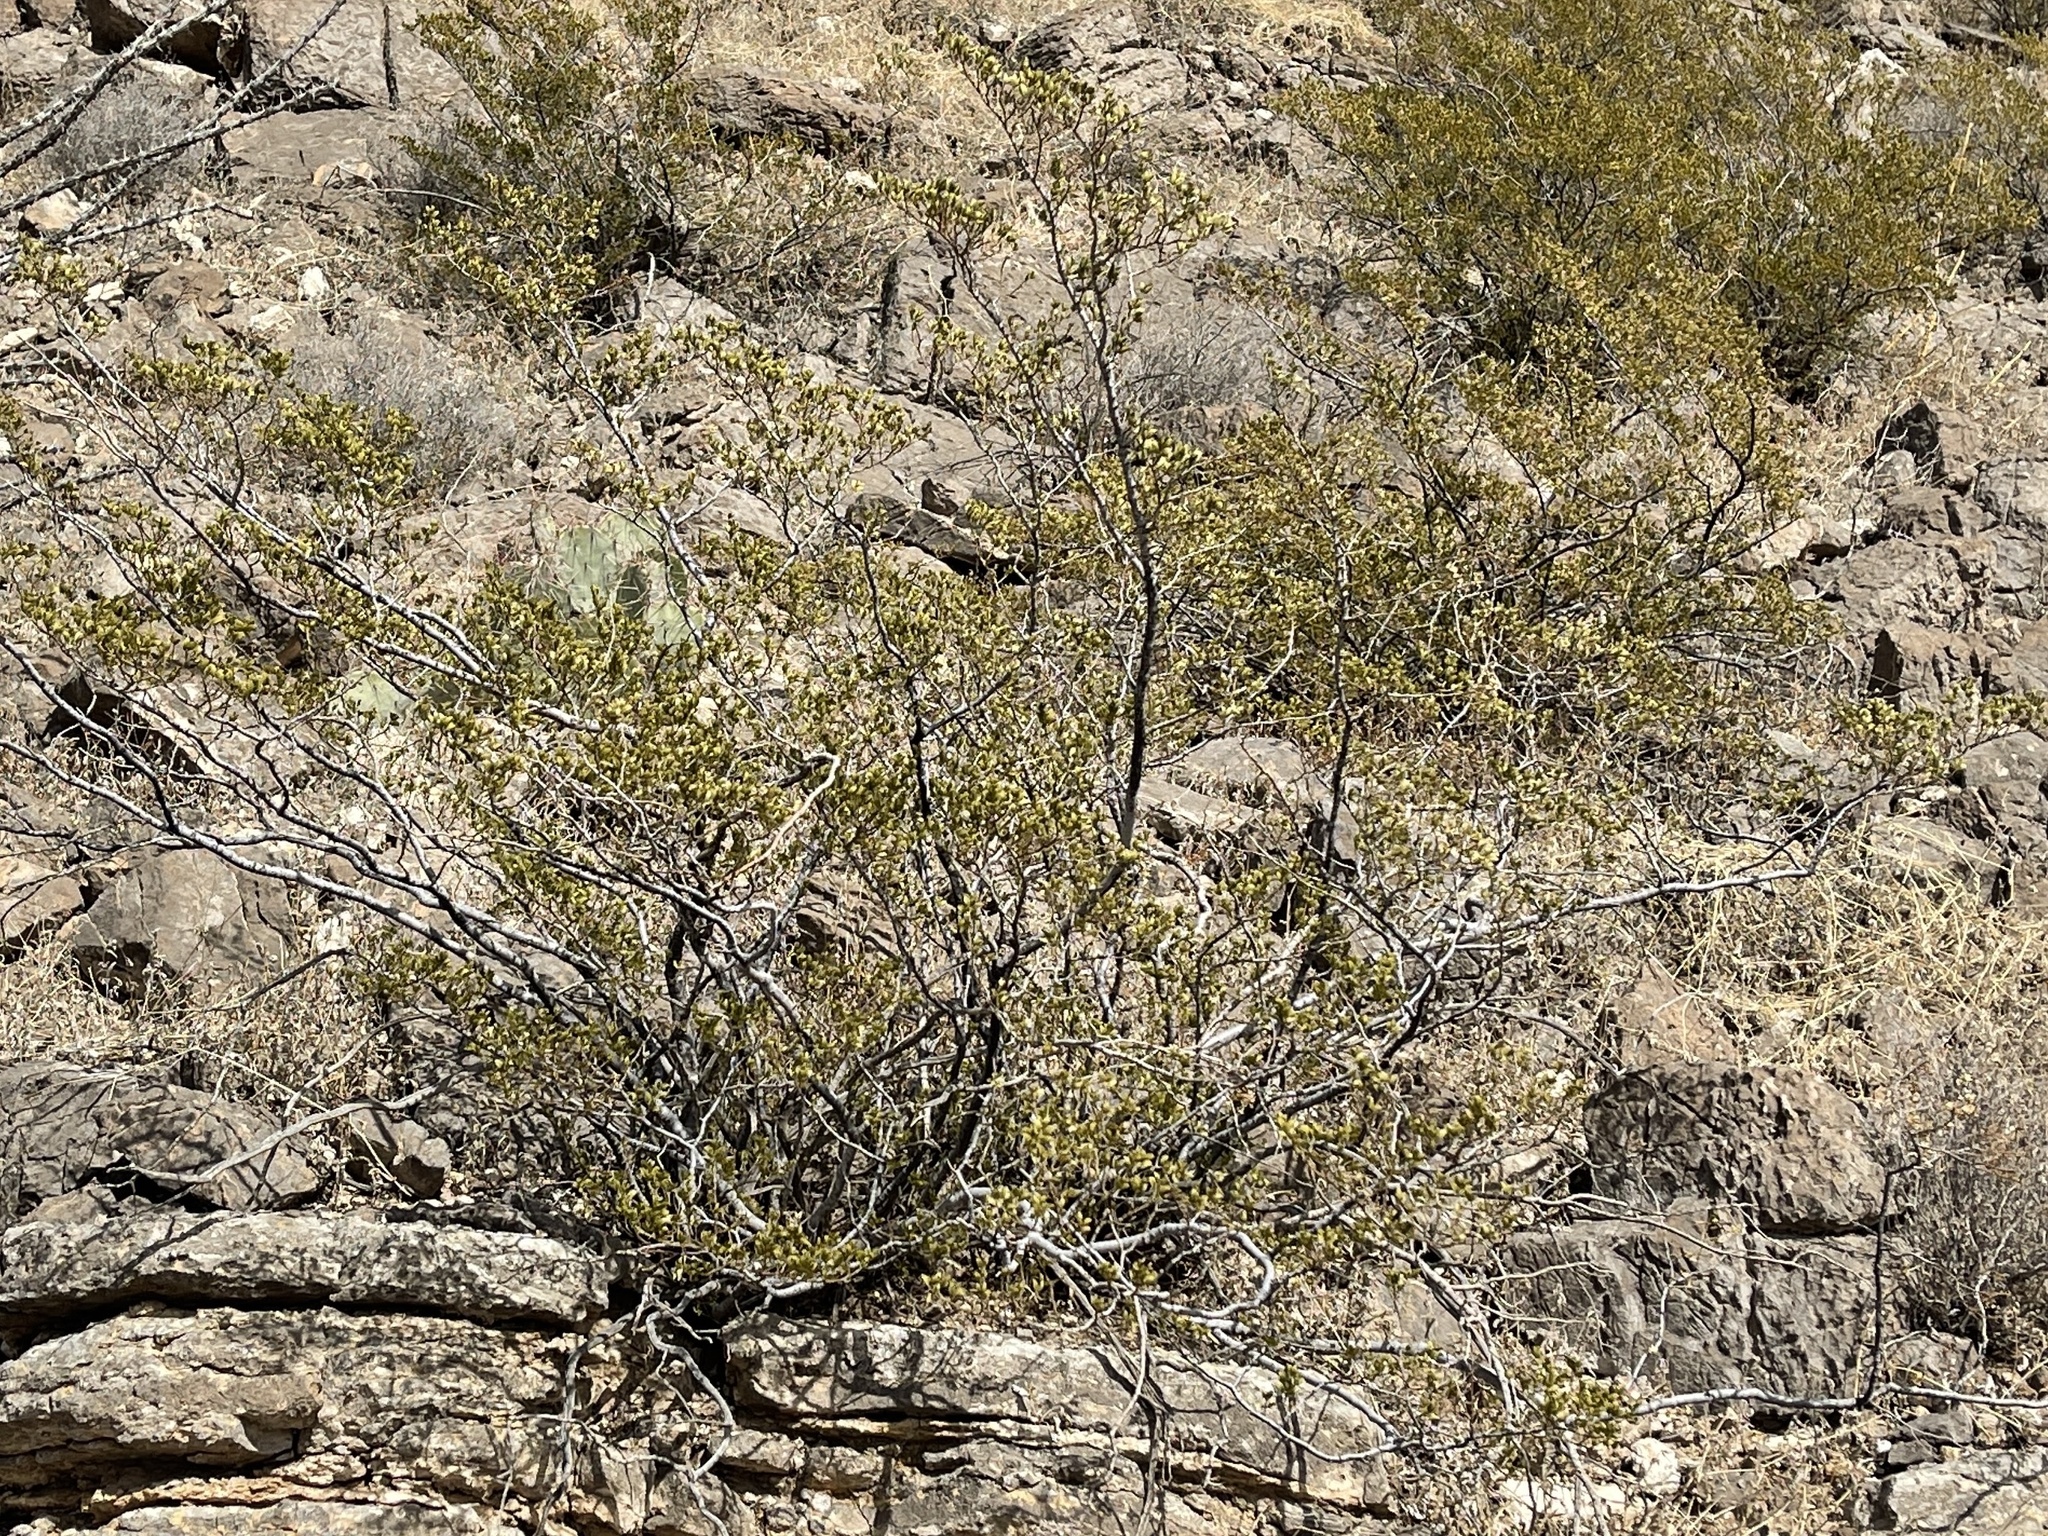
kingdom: Plantae
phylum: Tracheophyta
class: Magnoliopsida
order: Zygophyllales
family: Zygophyllaceae
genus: Larrea
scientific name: Larrea tridentata
